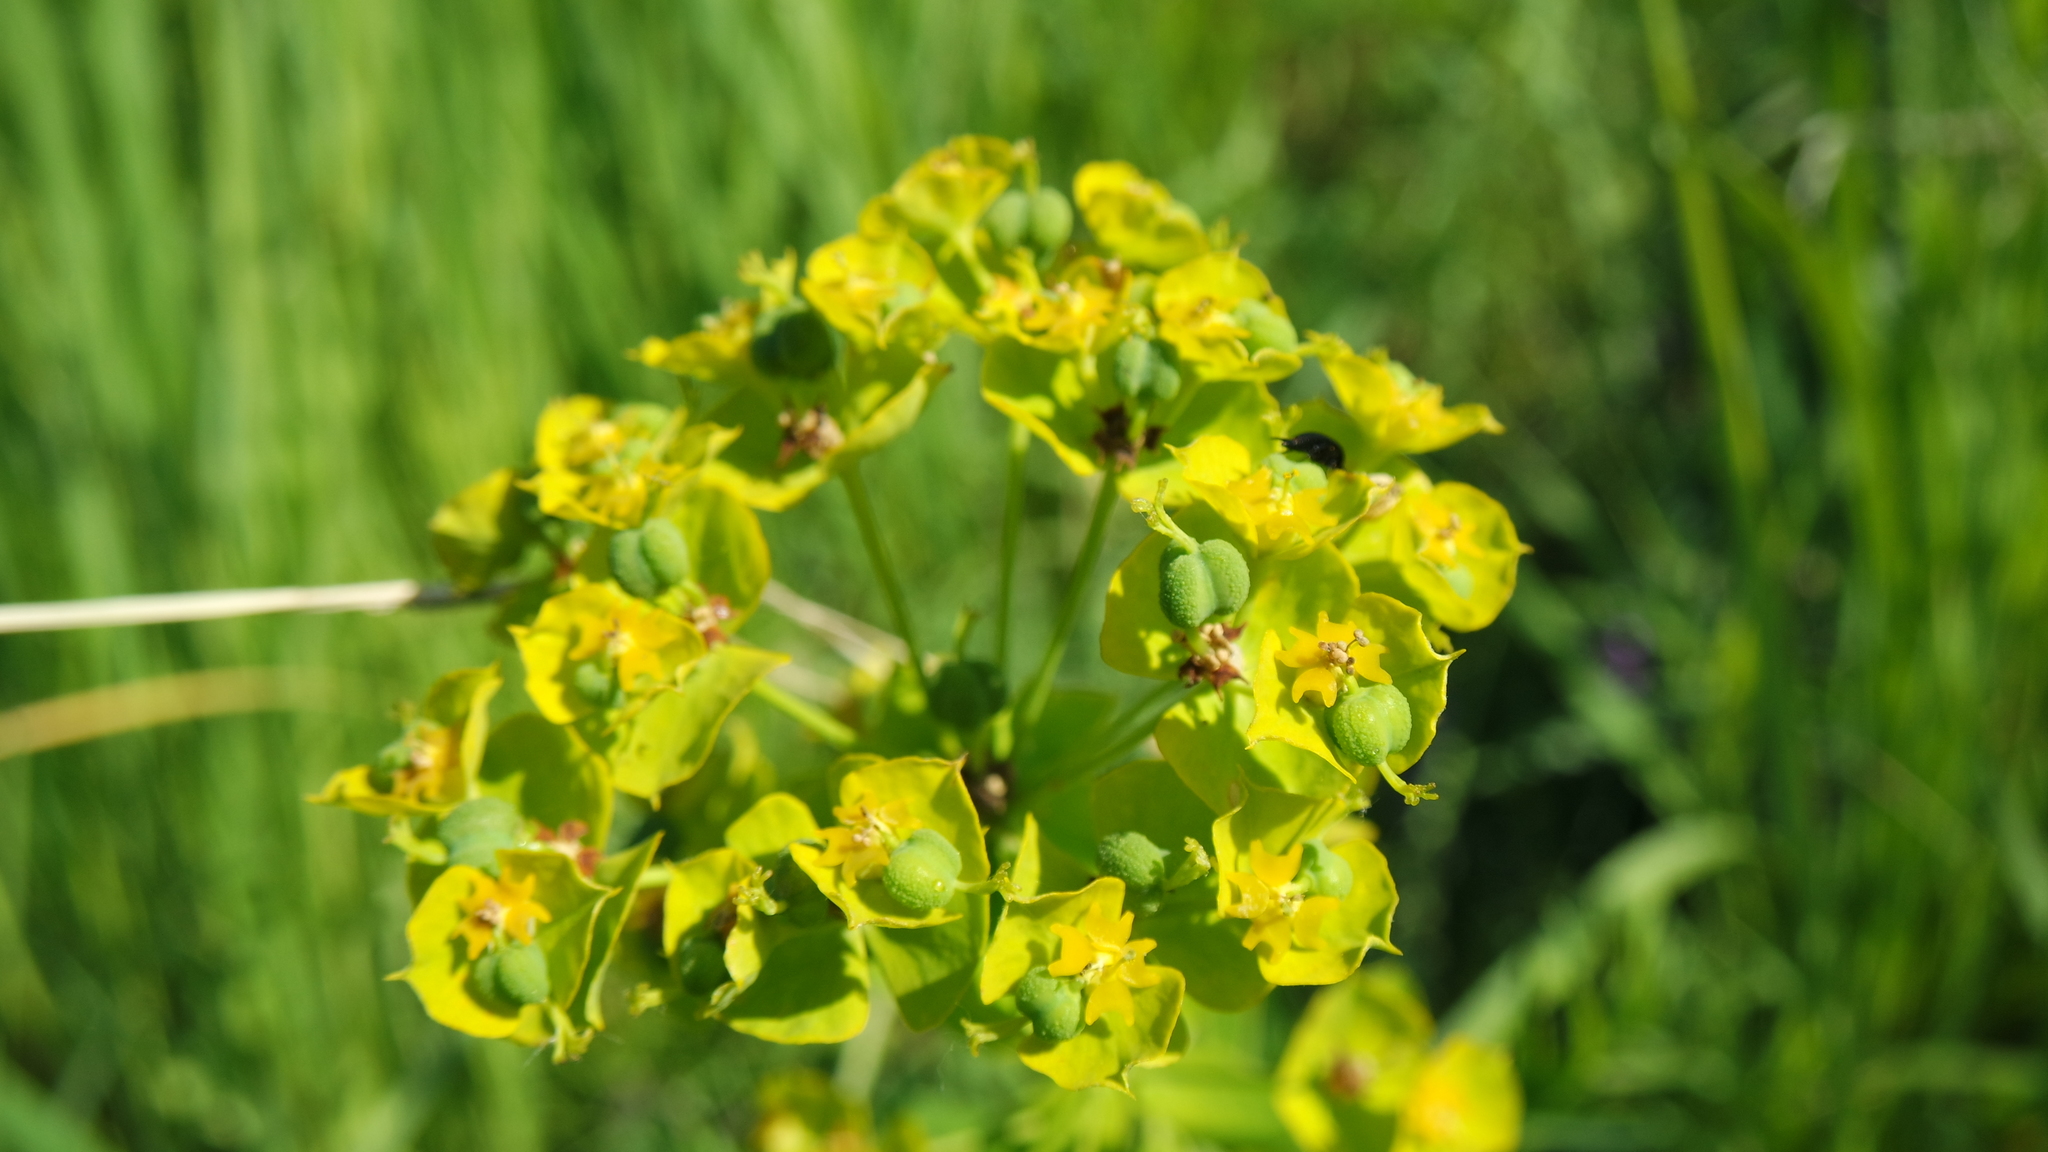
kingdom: Plantae
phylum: Tracheophyta
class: Magnoliopsida
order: Malpighiales
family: Euphorbiaceae
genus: Euphorbia
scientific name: Euphorbia virgata
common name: Leafy spurge
